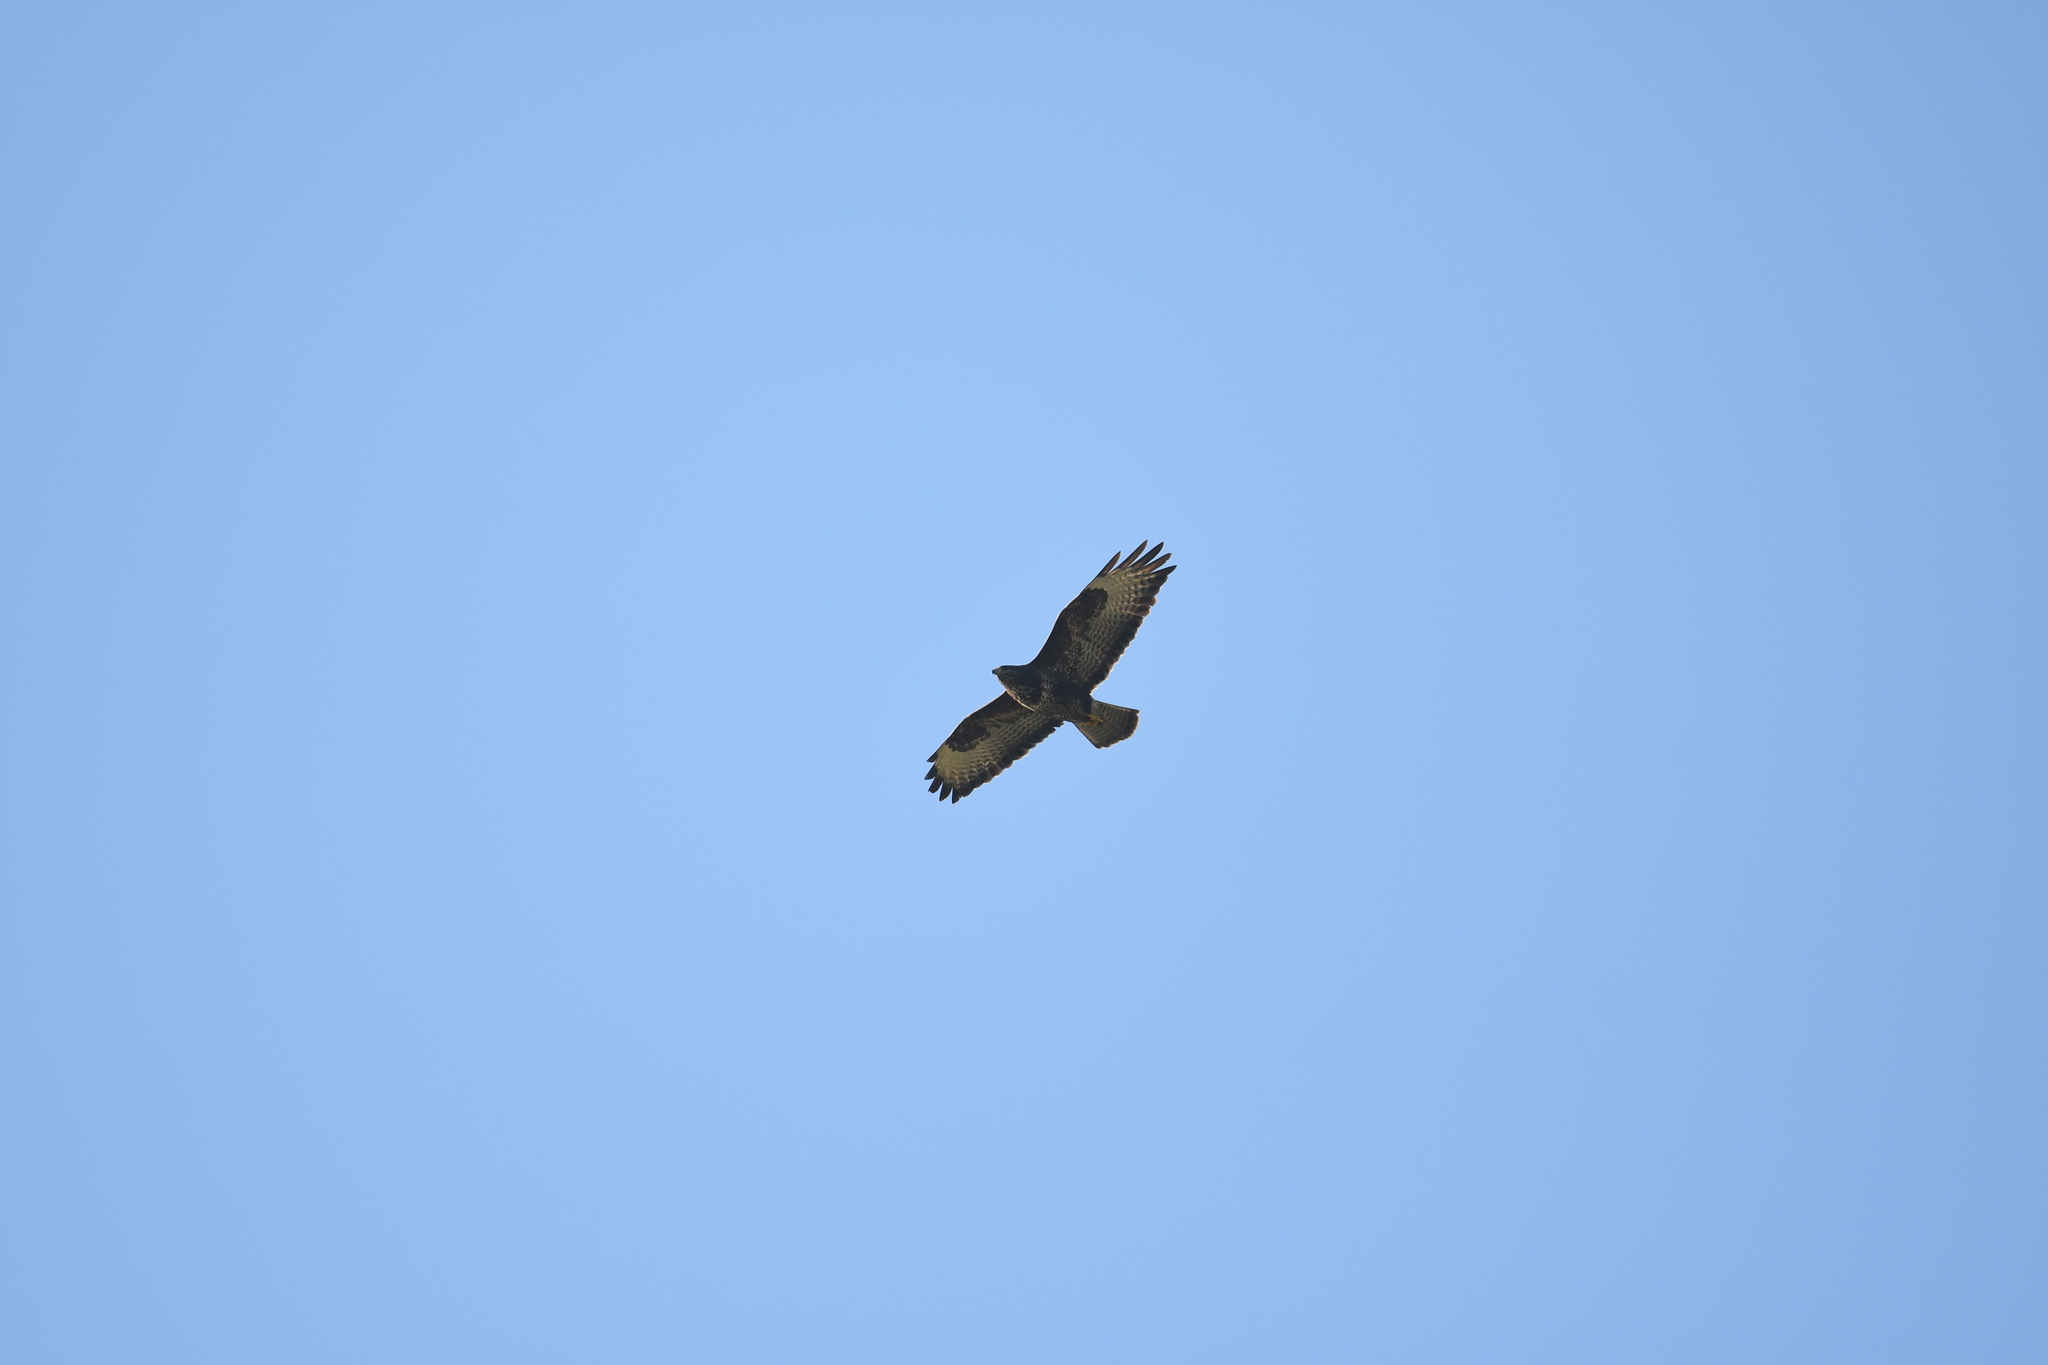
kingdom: Animalia
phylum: Chordata
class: Aves
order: Accipitriformes
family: Accipitridae
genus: Buteo
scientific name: Buteo buteo
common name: Common buzzard
